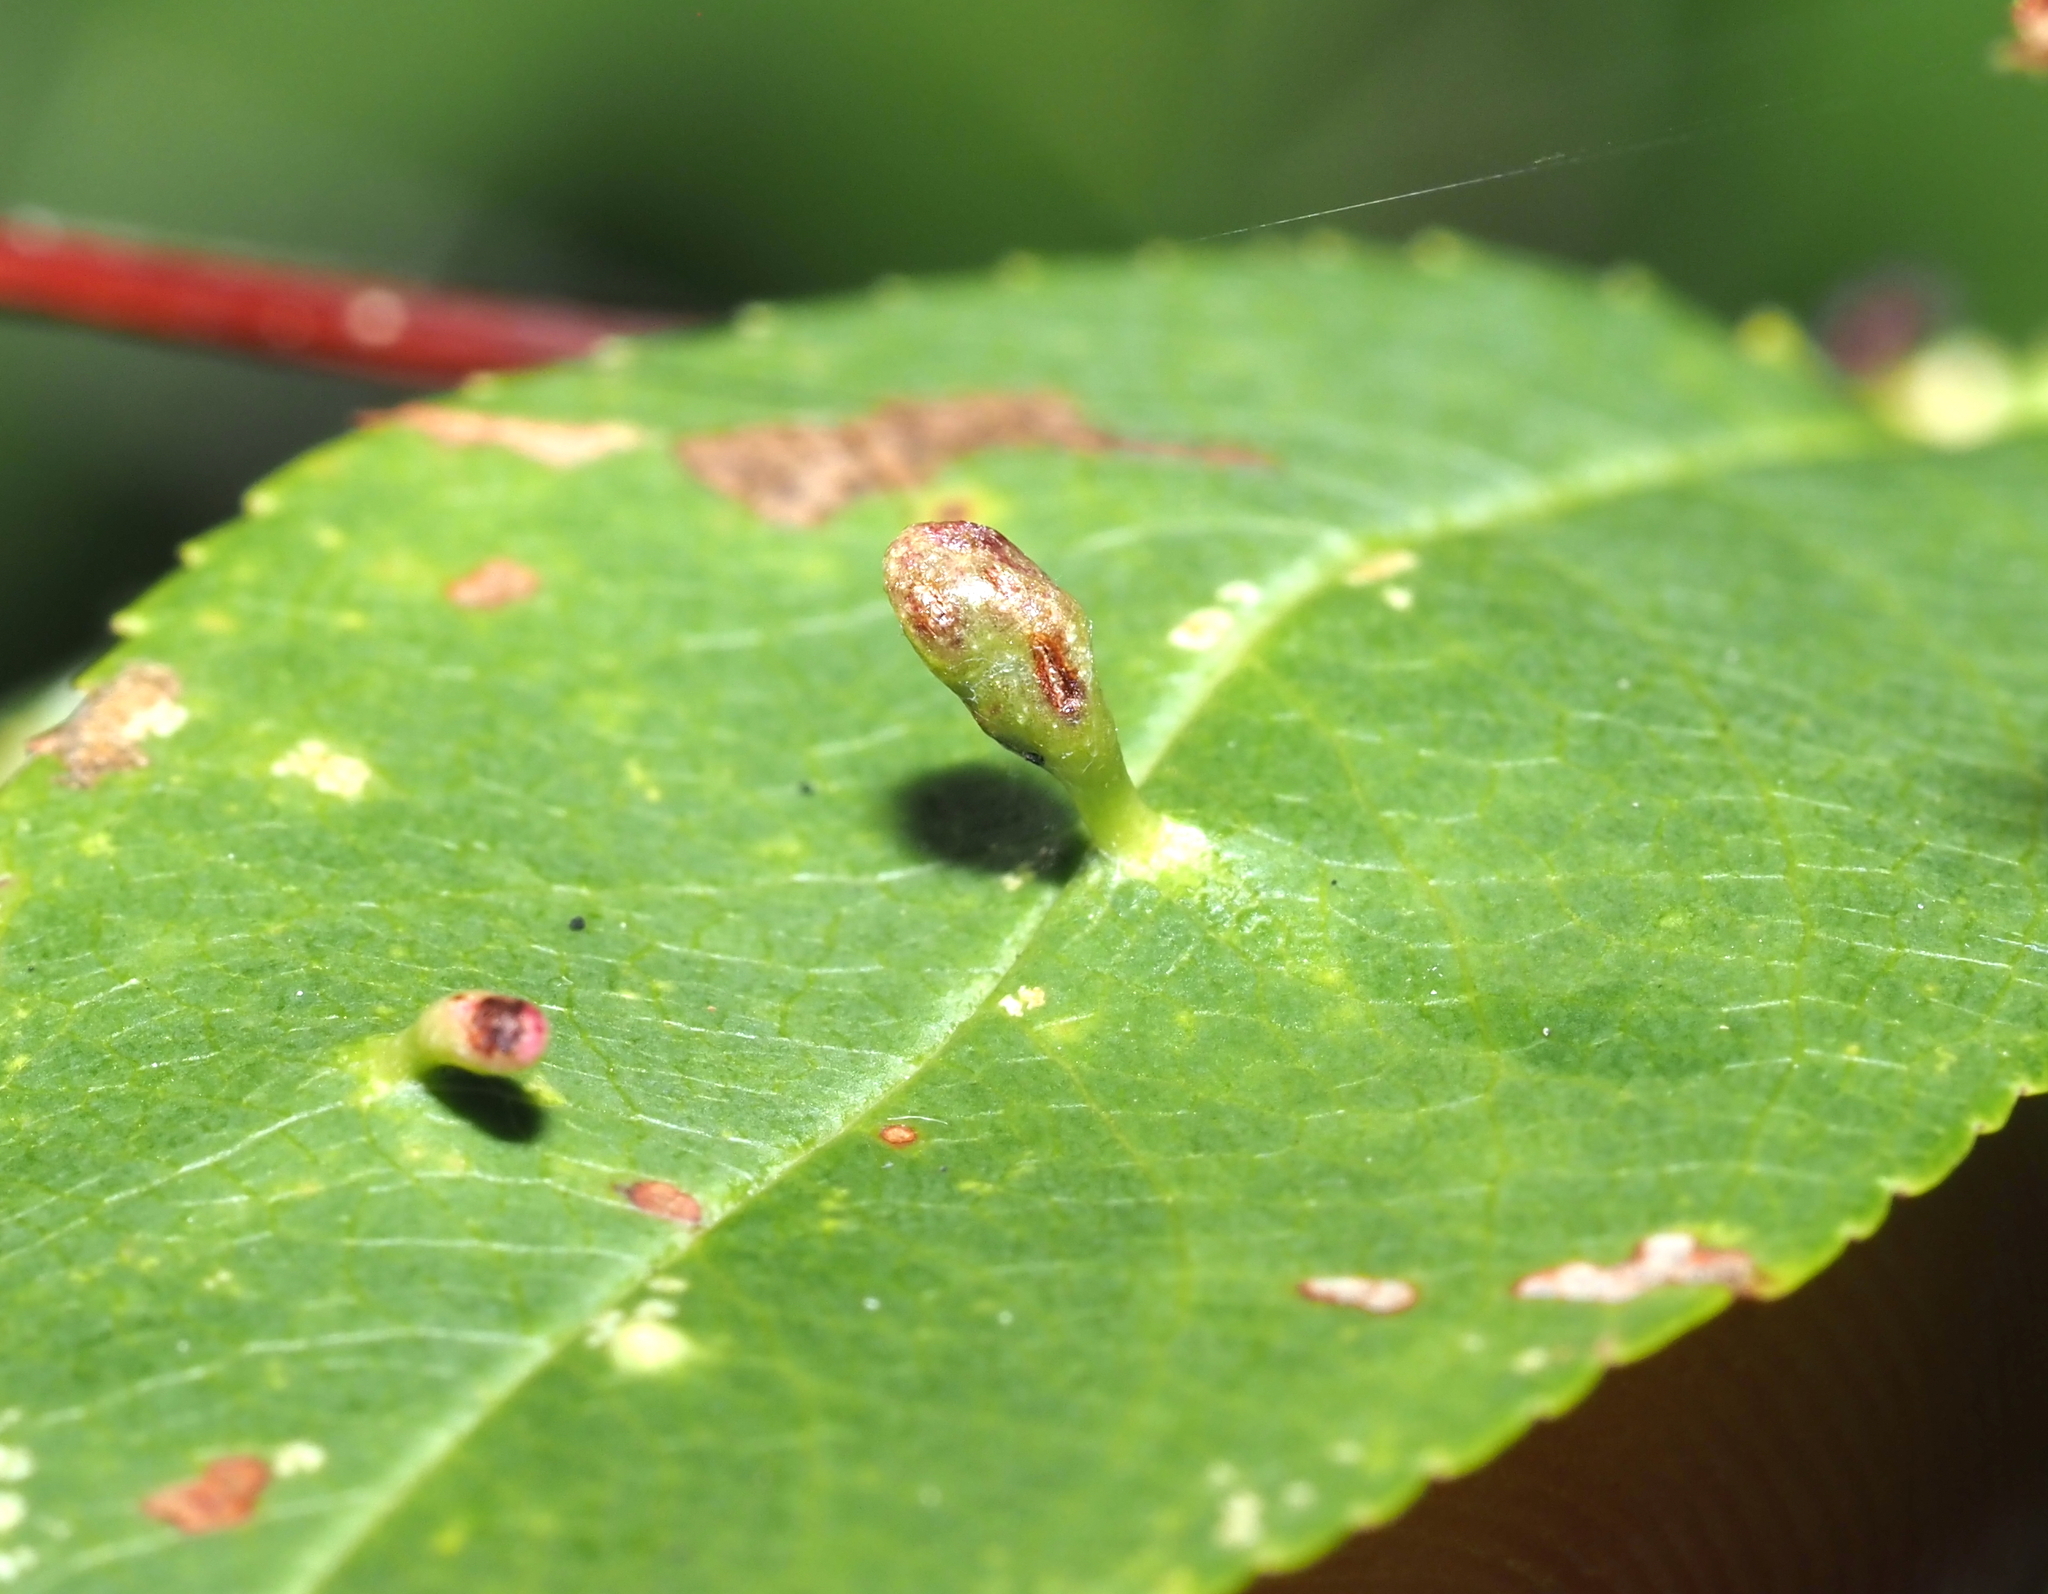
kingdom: Animalia
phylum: Arthropoda
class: Arachnida
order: Trombidiformes
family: Eriophyidae
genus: Eriophyes
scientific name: Eriophyes
